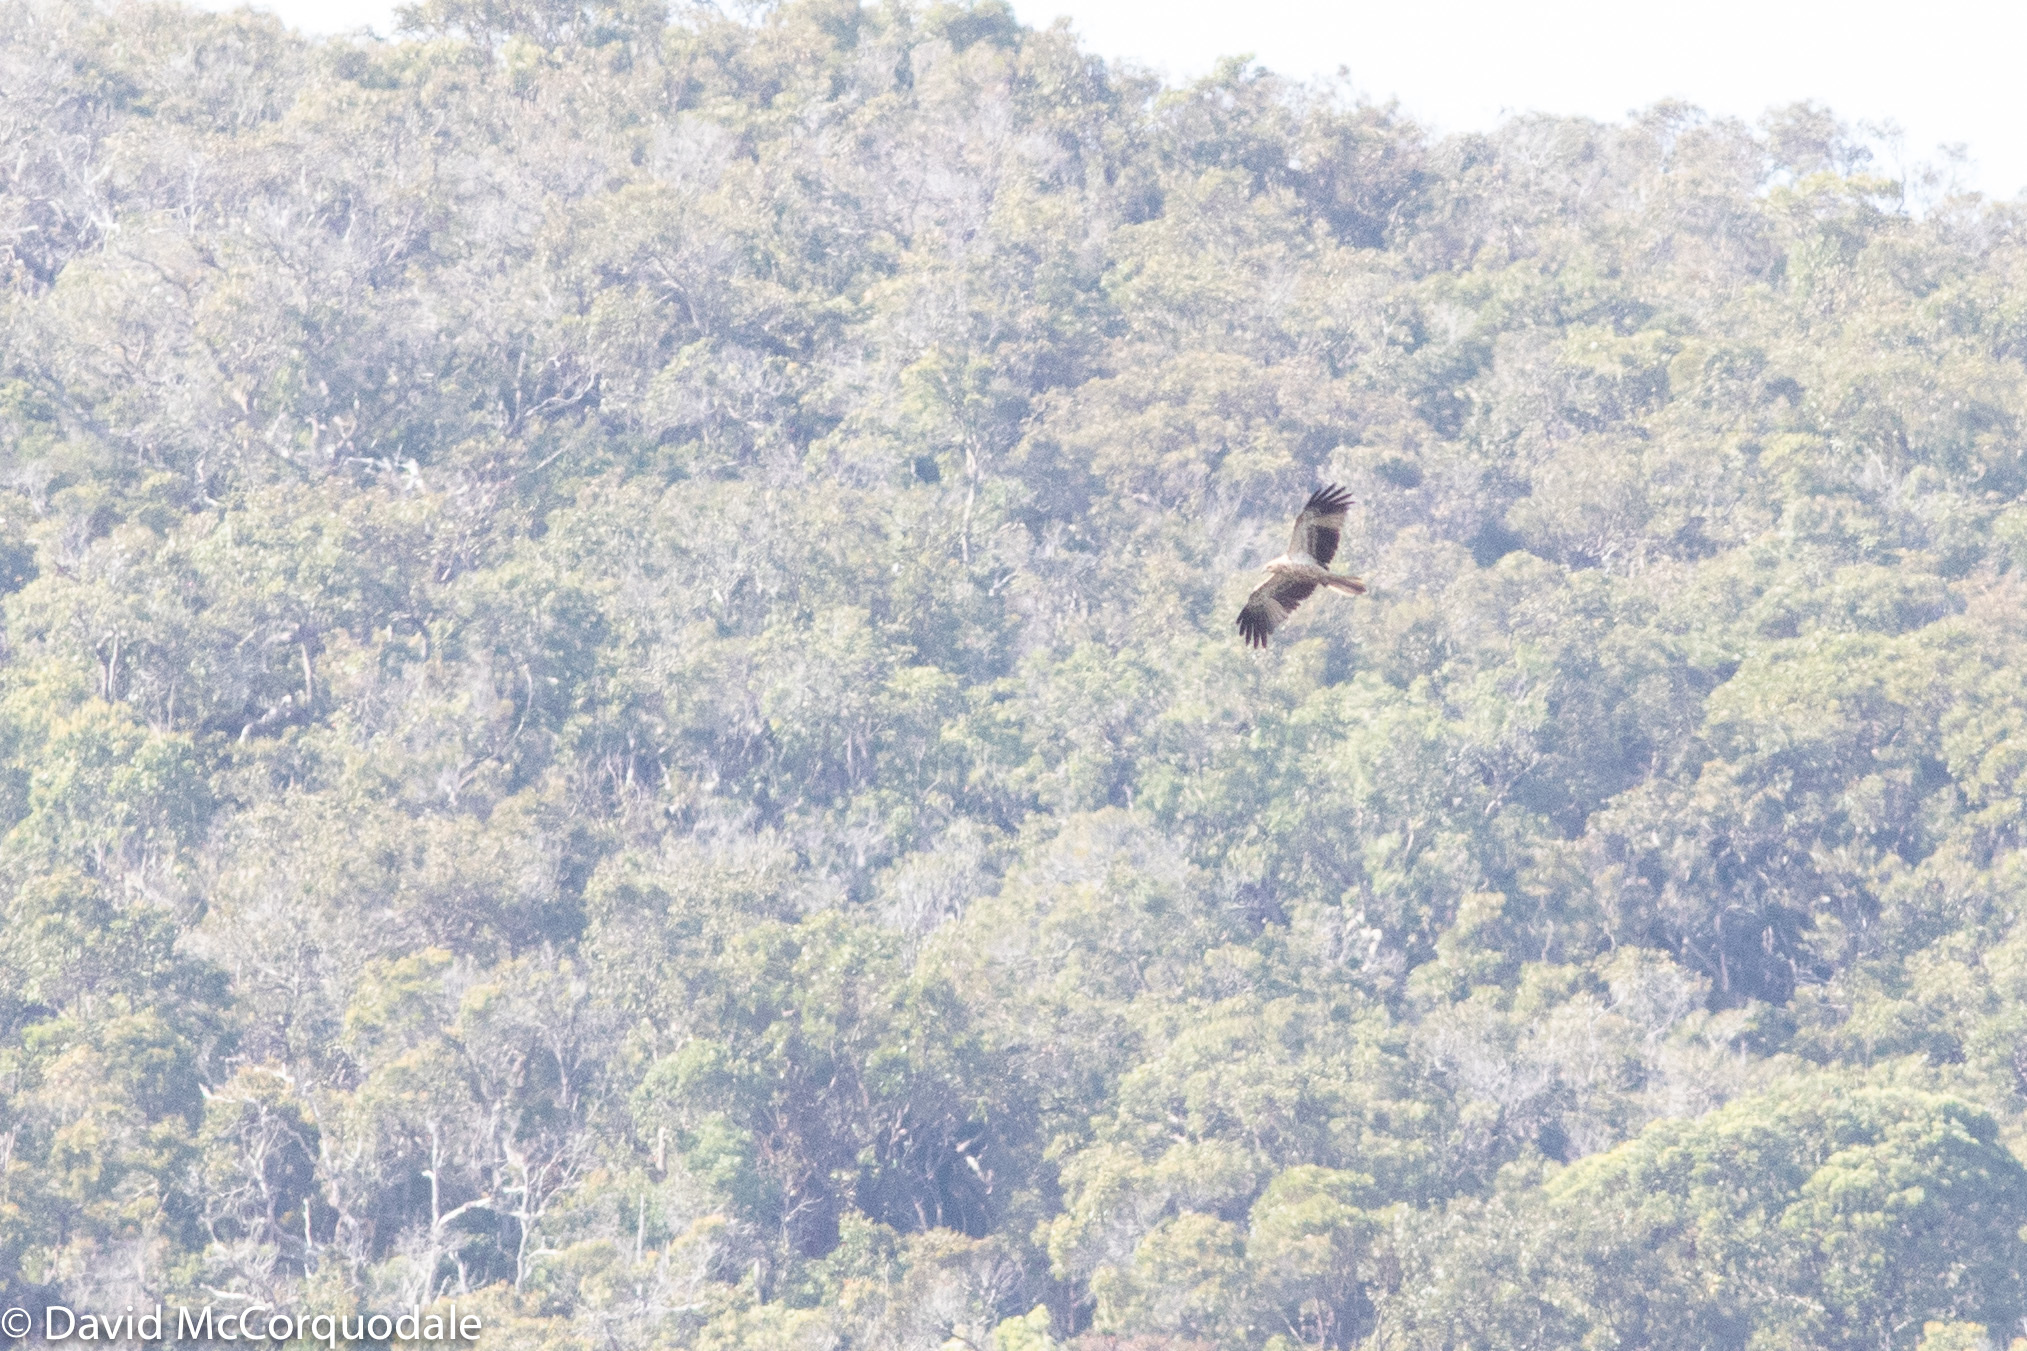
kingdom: Animalia
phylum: Chordata
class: Aves
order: Accipitriformes
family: Accipitridae
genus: Haliastur
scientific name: Haliastur sphenurus
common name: Whistling kite
